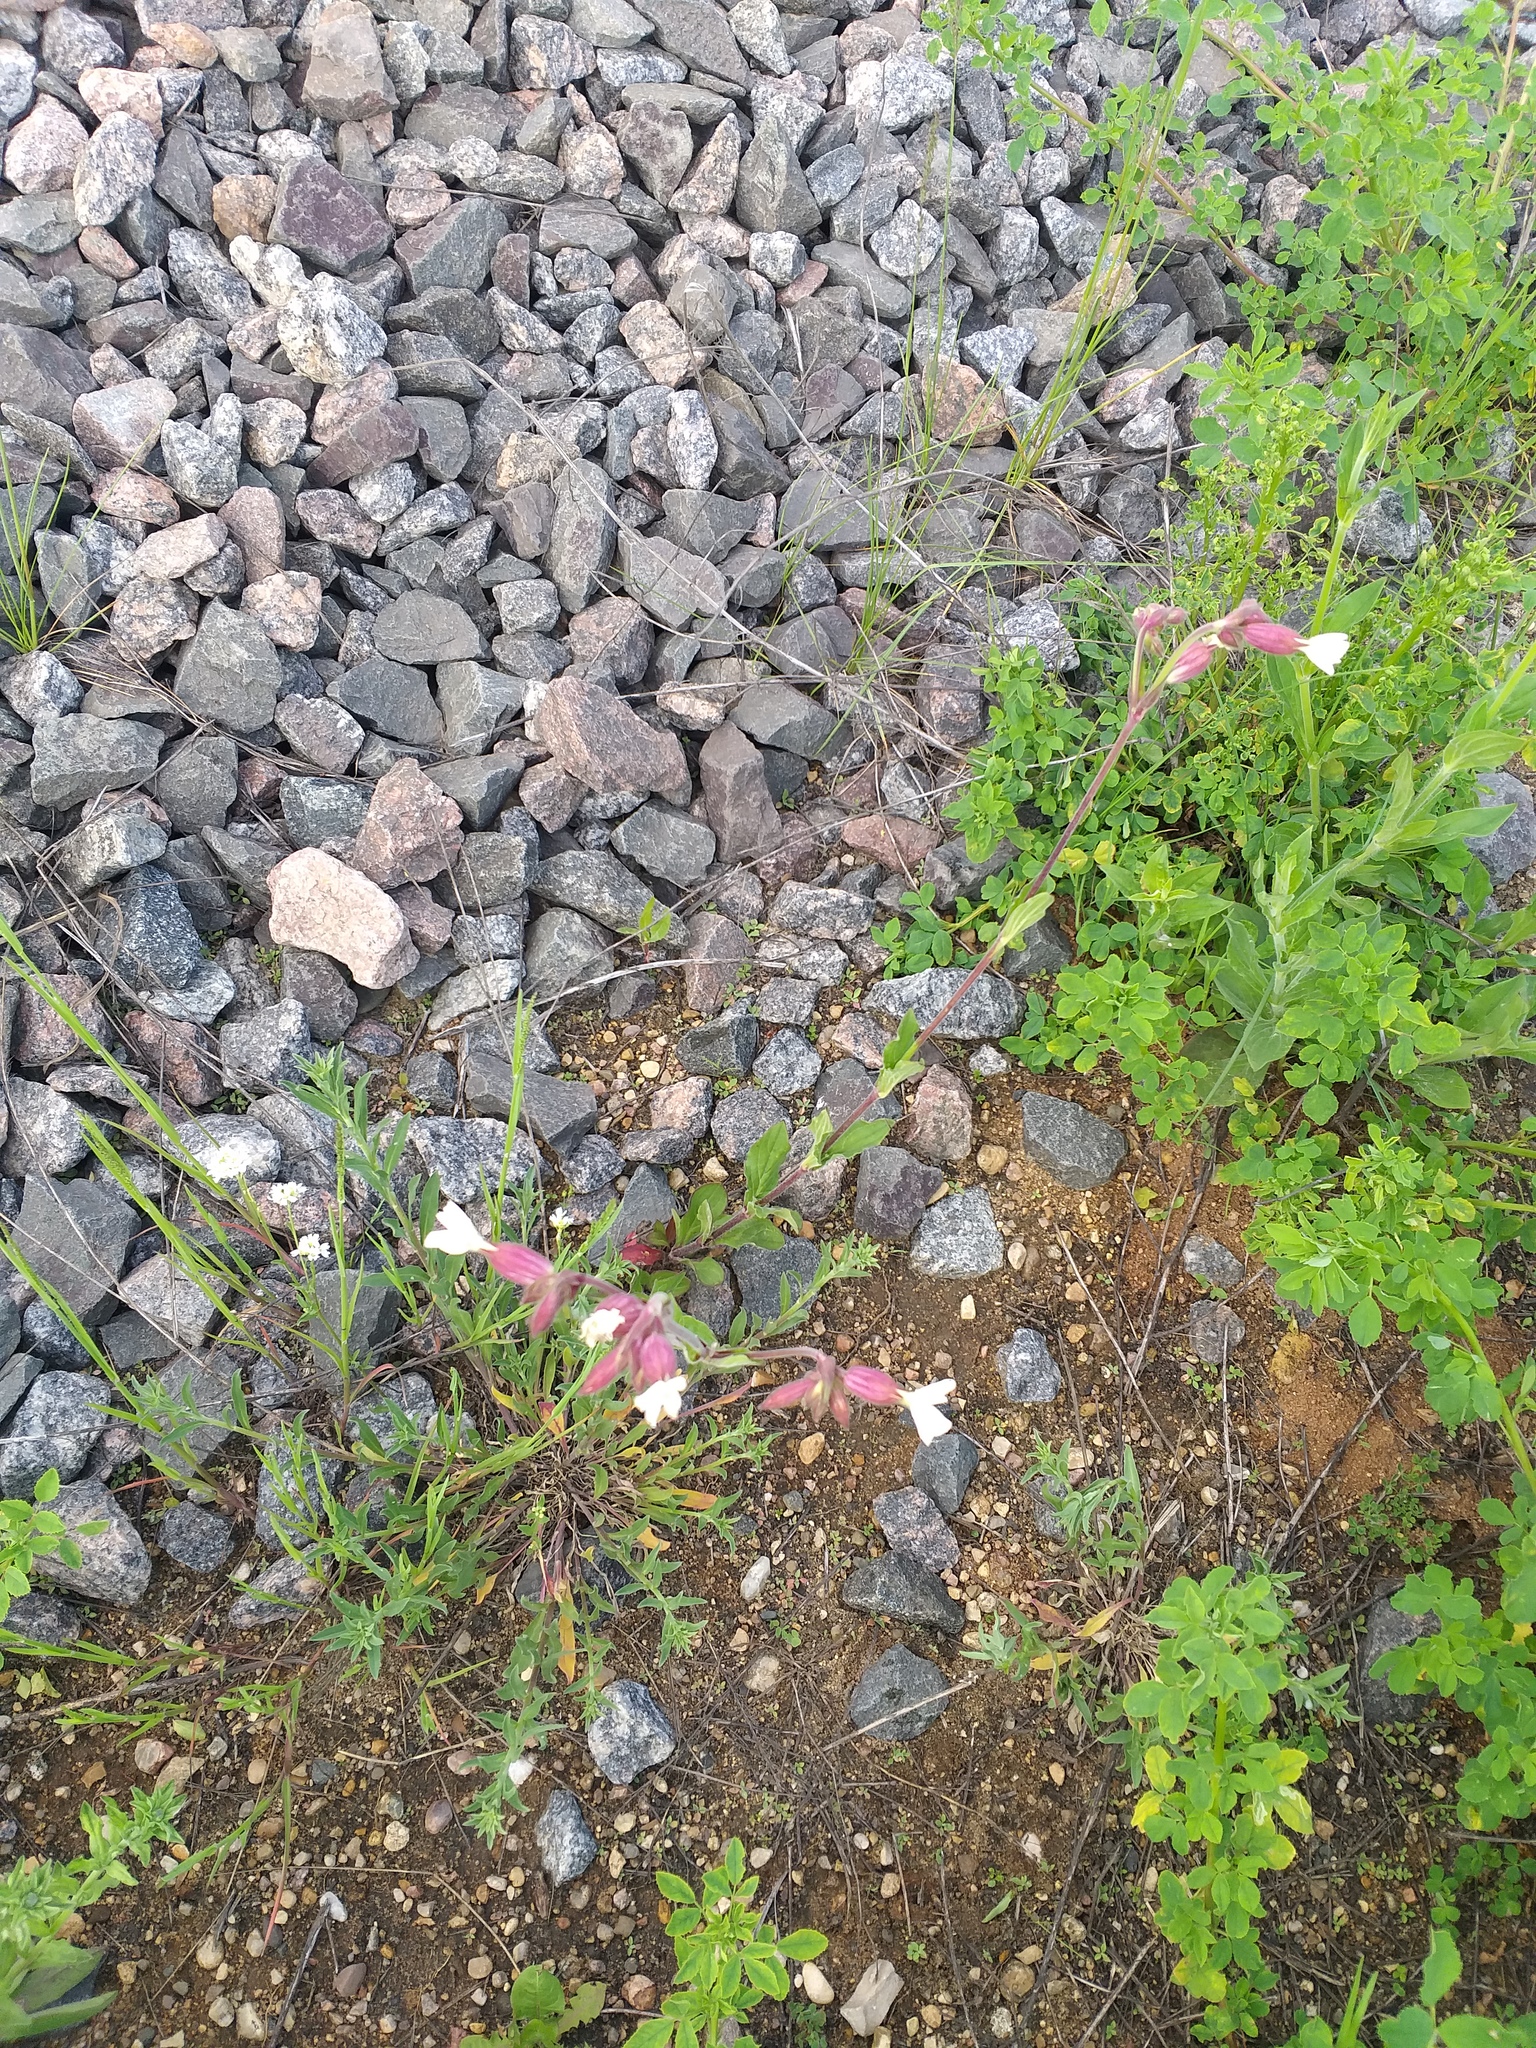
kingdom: Plantae
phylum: Tracheophyta
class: Magnoliopsida
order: Caryophyllales
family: Caryophyllaceae
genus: Silene
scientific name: Silene latifolia
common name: White campion
